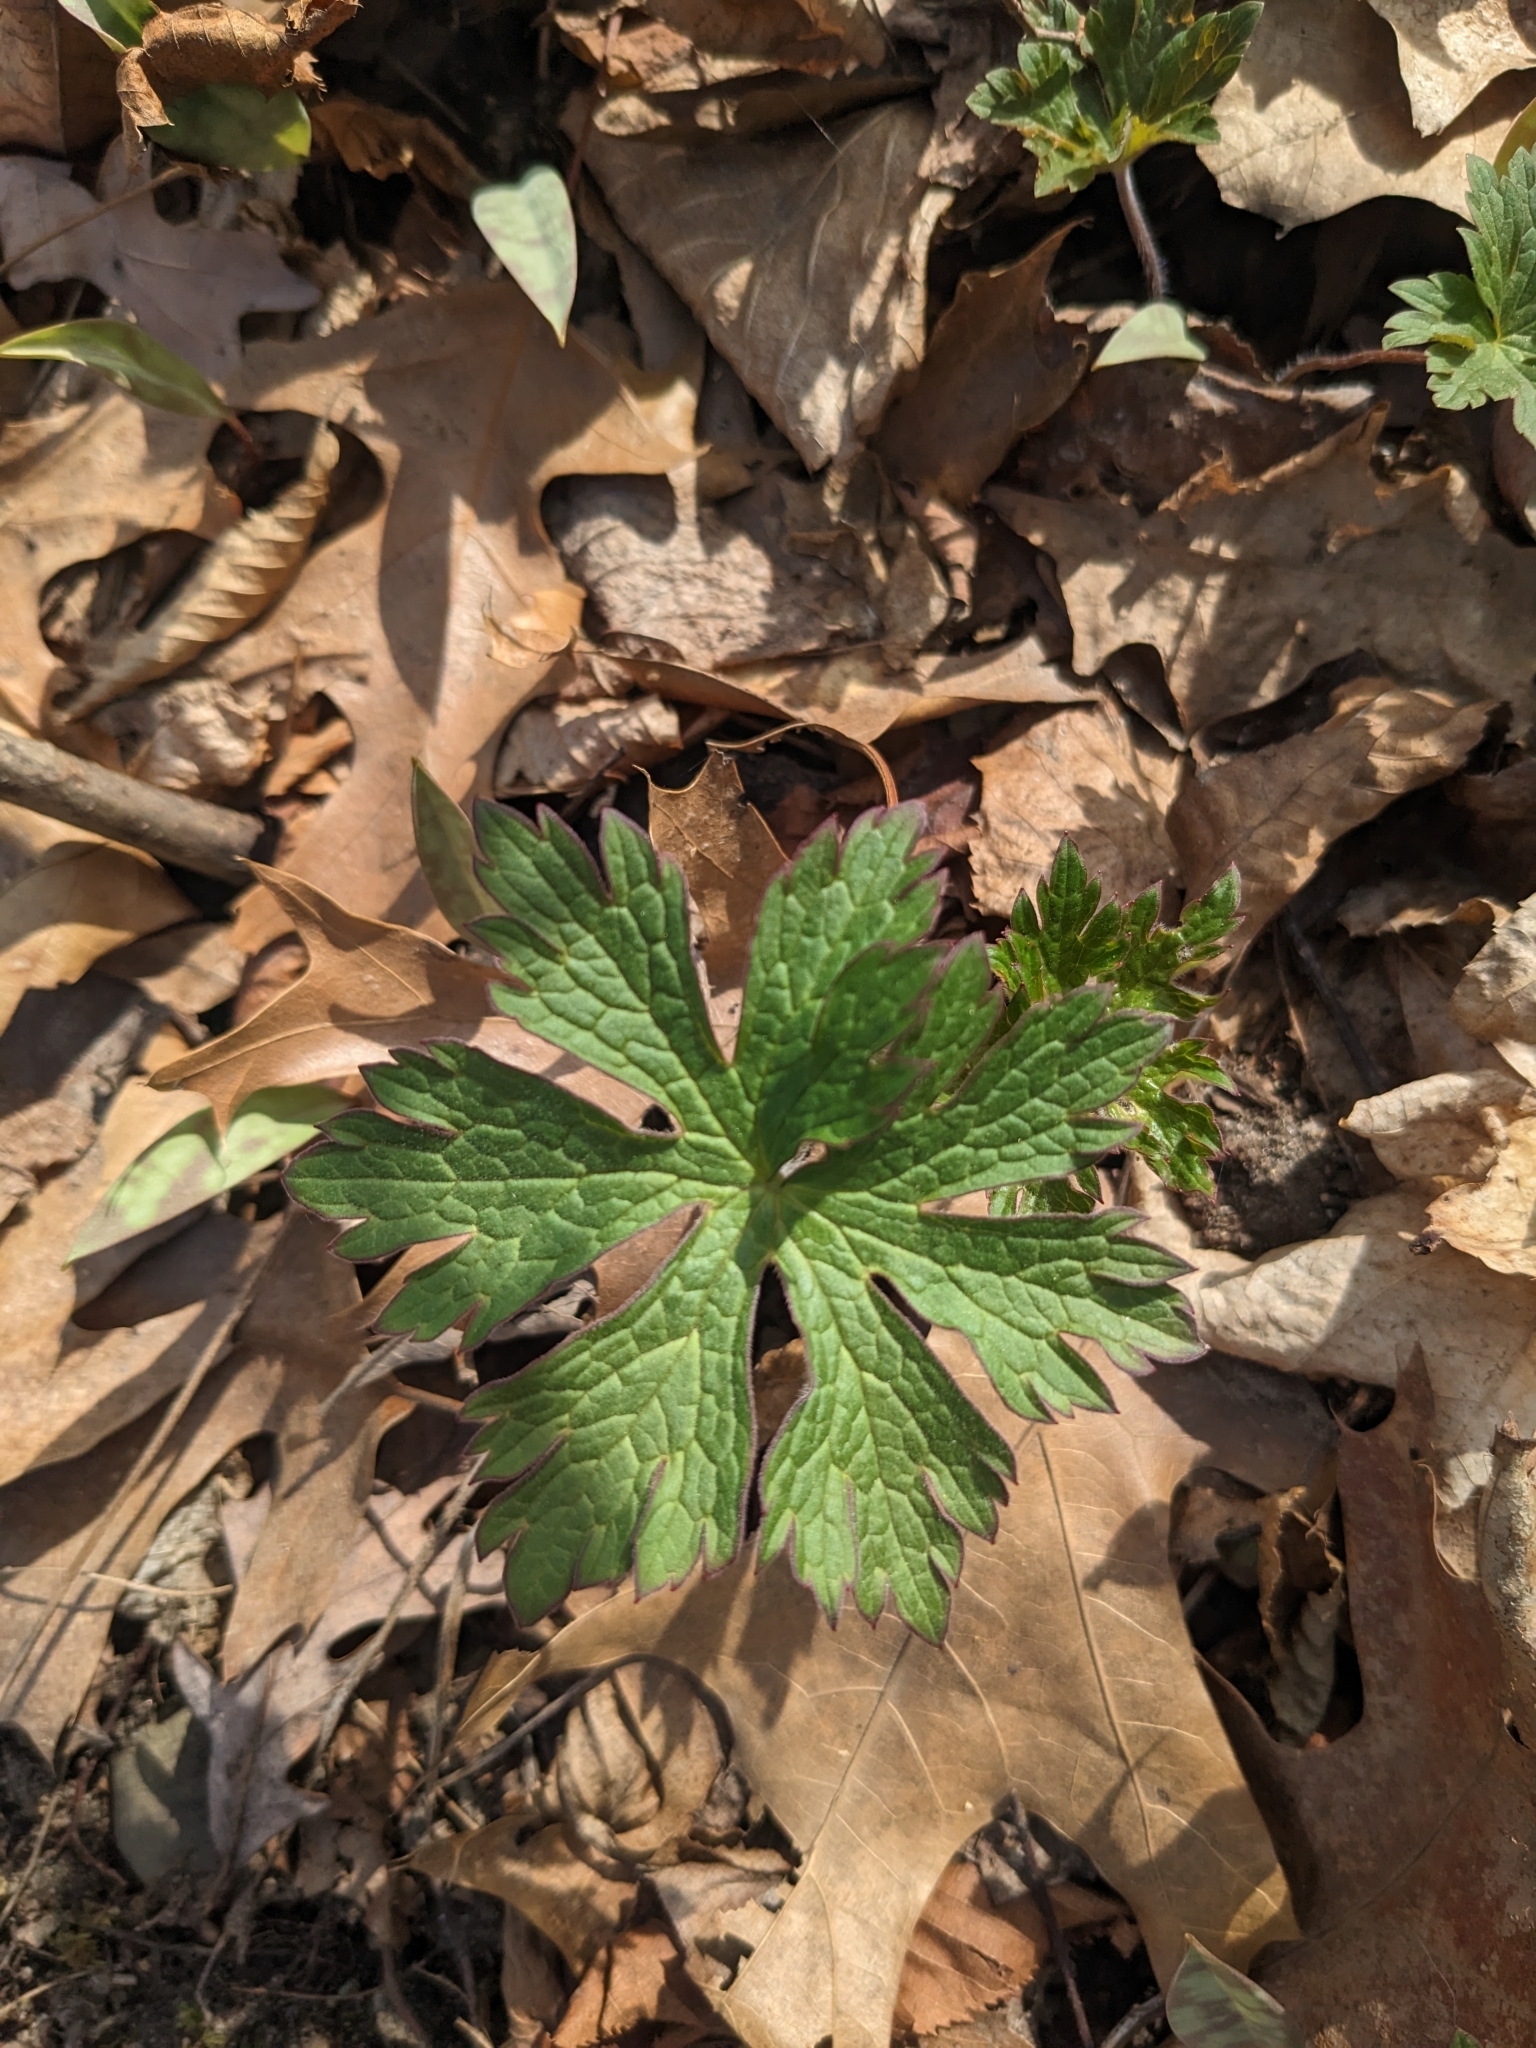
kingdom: Plantae
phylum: Tracheophyta
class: Magnoliopsida
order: Geraniales
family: Geraniaceae
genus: Geranium
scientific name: Geranium maculatum
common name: Spotted geranium
